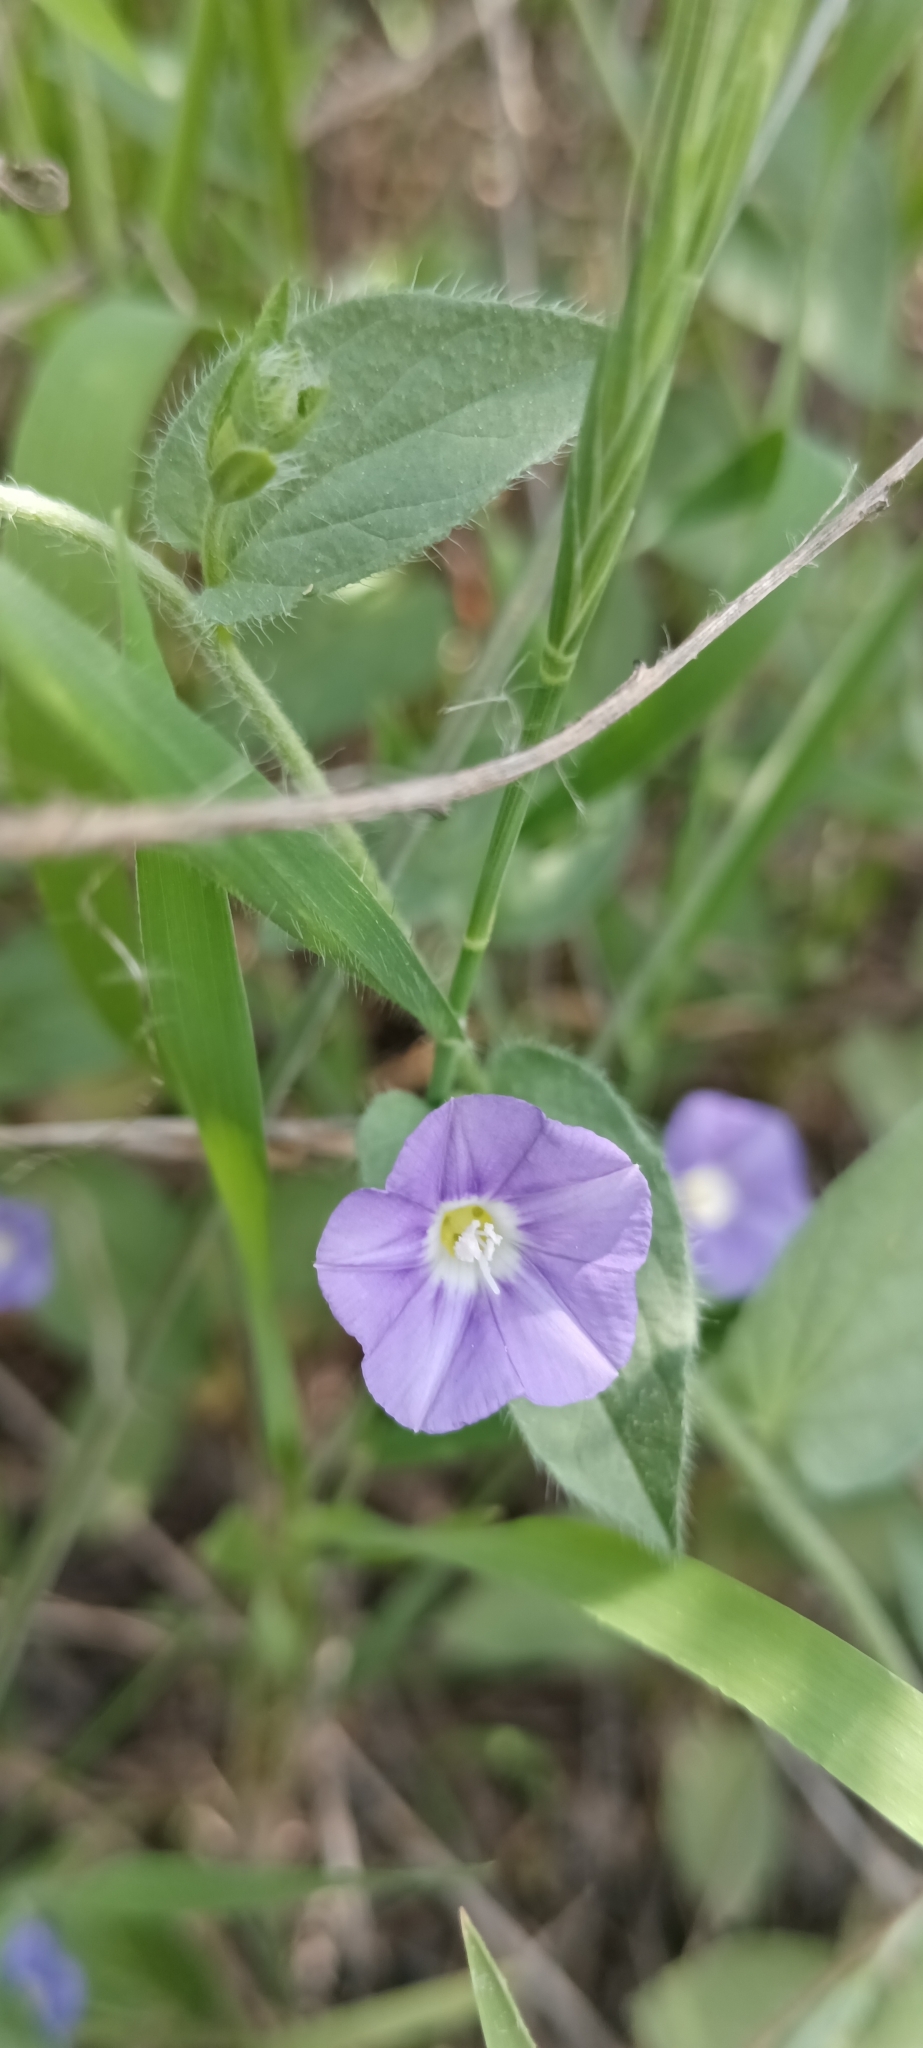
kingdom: Plantae
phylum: Tracheophyta
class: Magnoliopsida
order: Solanales
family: Convolvulaceae
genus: Convolvulus
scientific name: Convolvulus siculus
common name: Small blue-convolvulus
